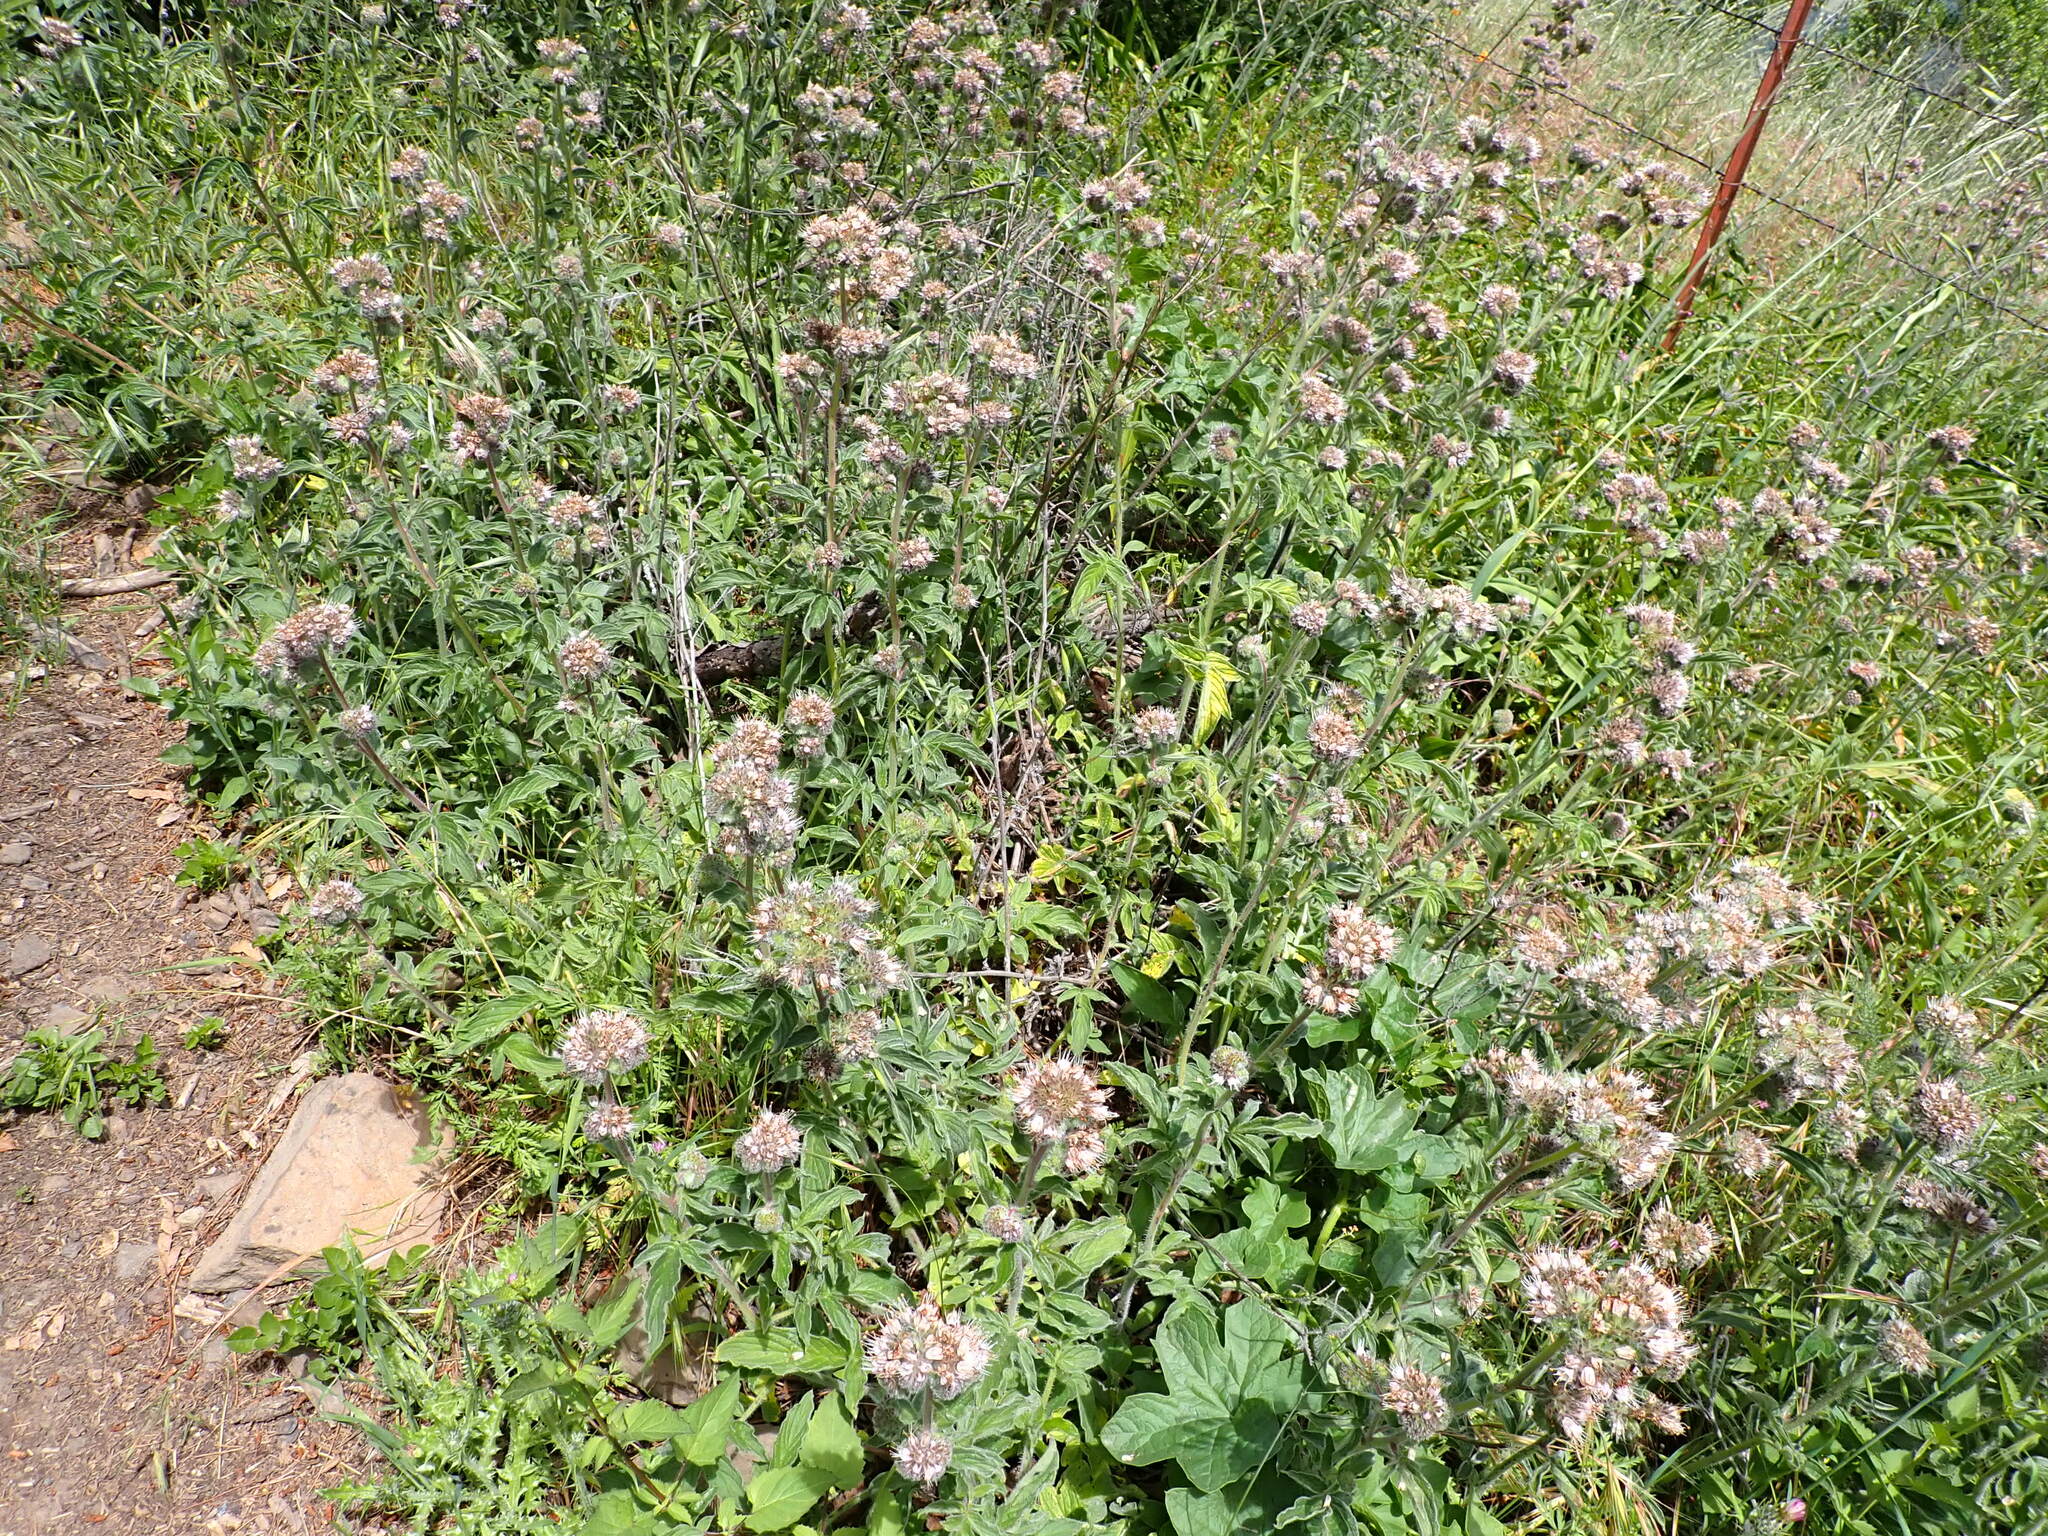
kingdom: Plantae
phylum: Tracheophyta
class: Magnoliopsida
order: Boraginales
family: Hydrophyllaceae
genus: Phacelia
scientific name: Phacelia californica
